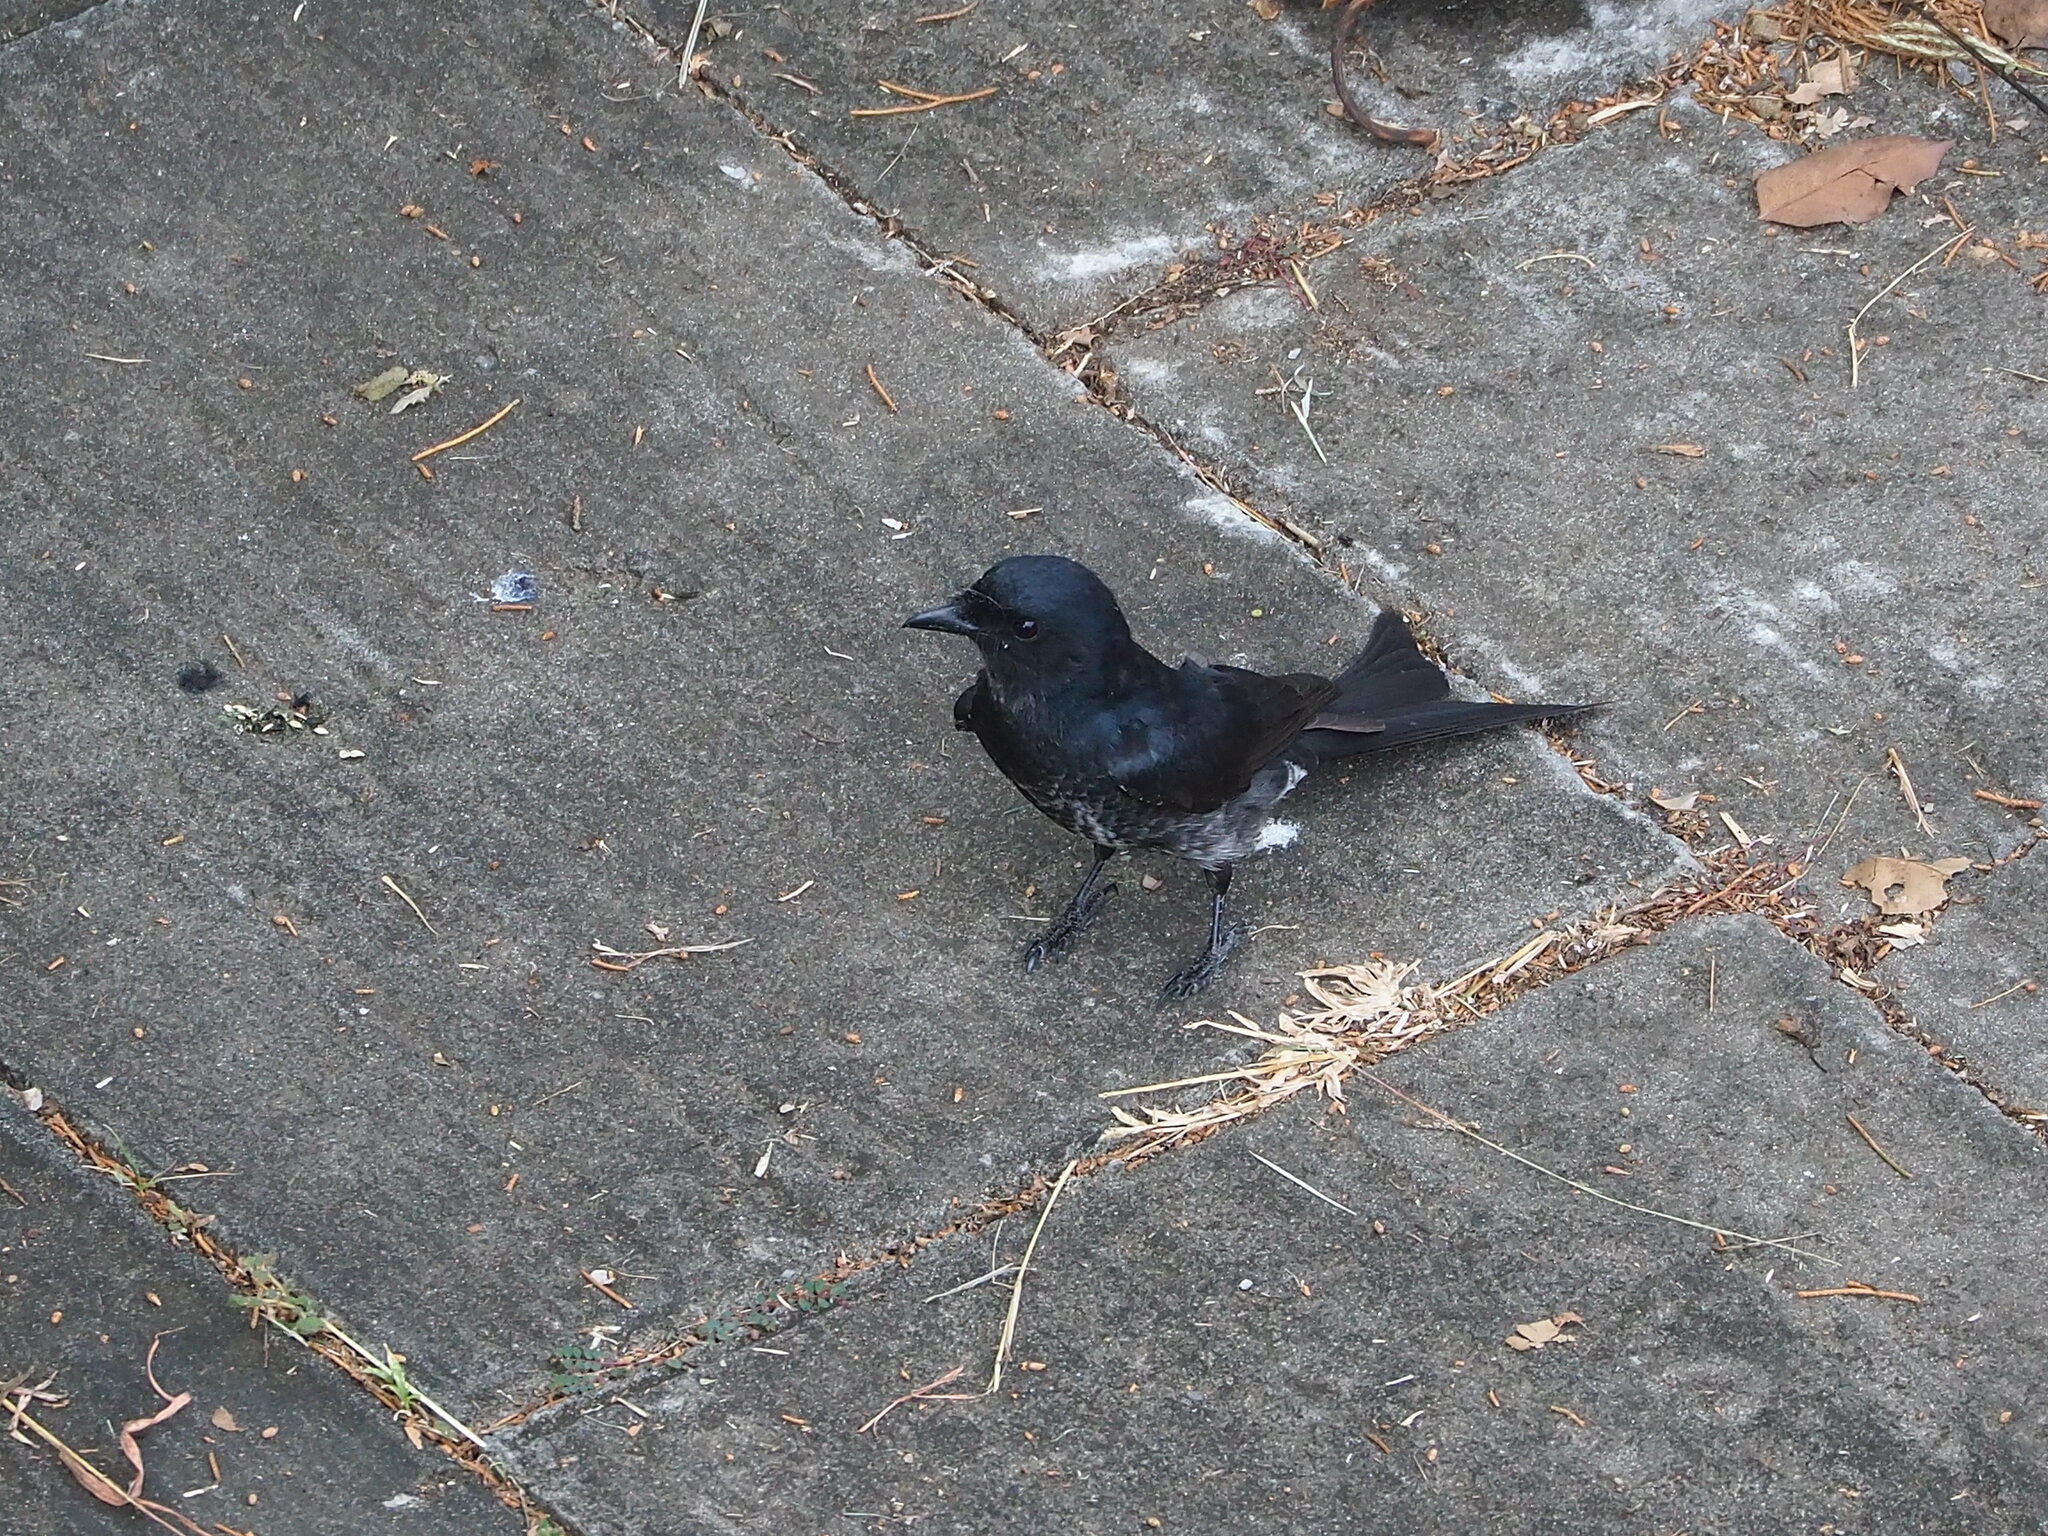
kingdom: Animalia
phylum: Chordata
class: Aves
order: Passeriformes
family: Dicruridae
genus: Dicrurus
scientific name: Dicrurus macrocercus
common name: Black drongo
